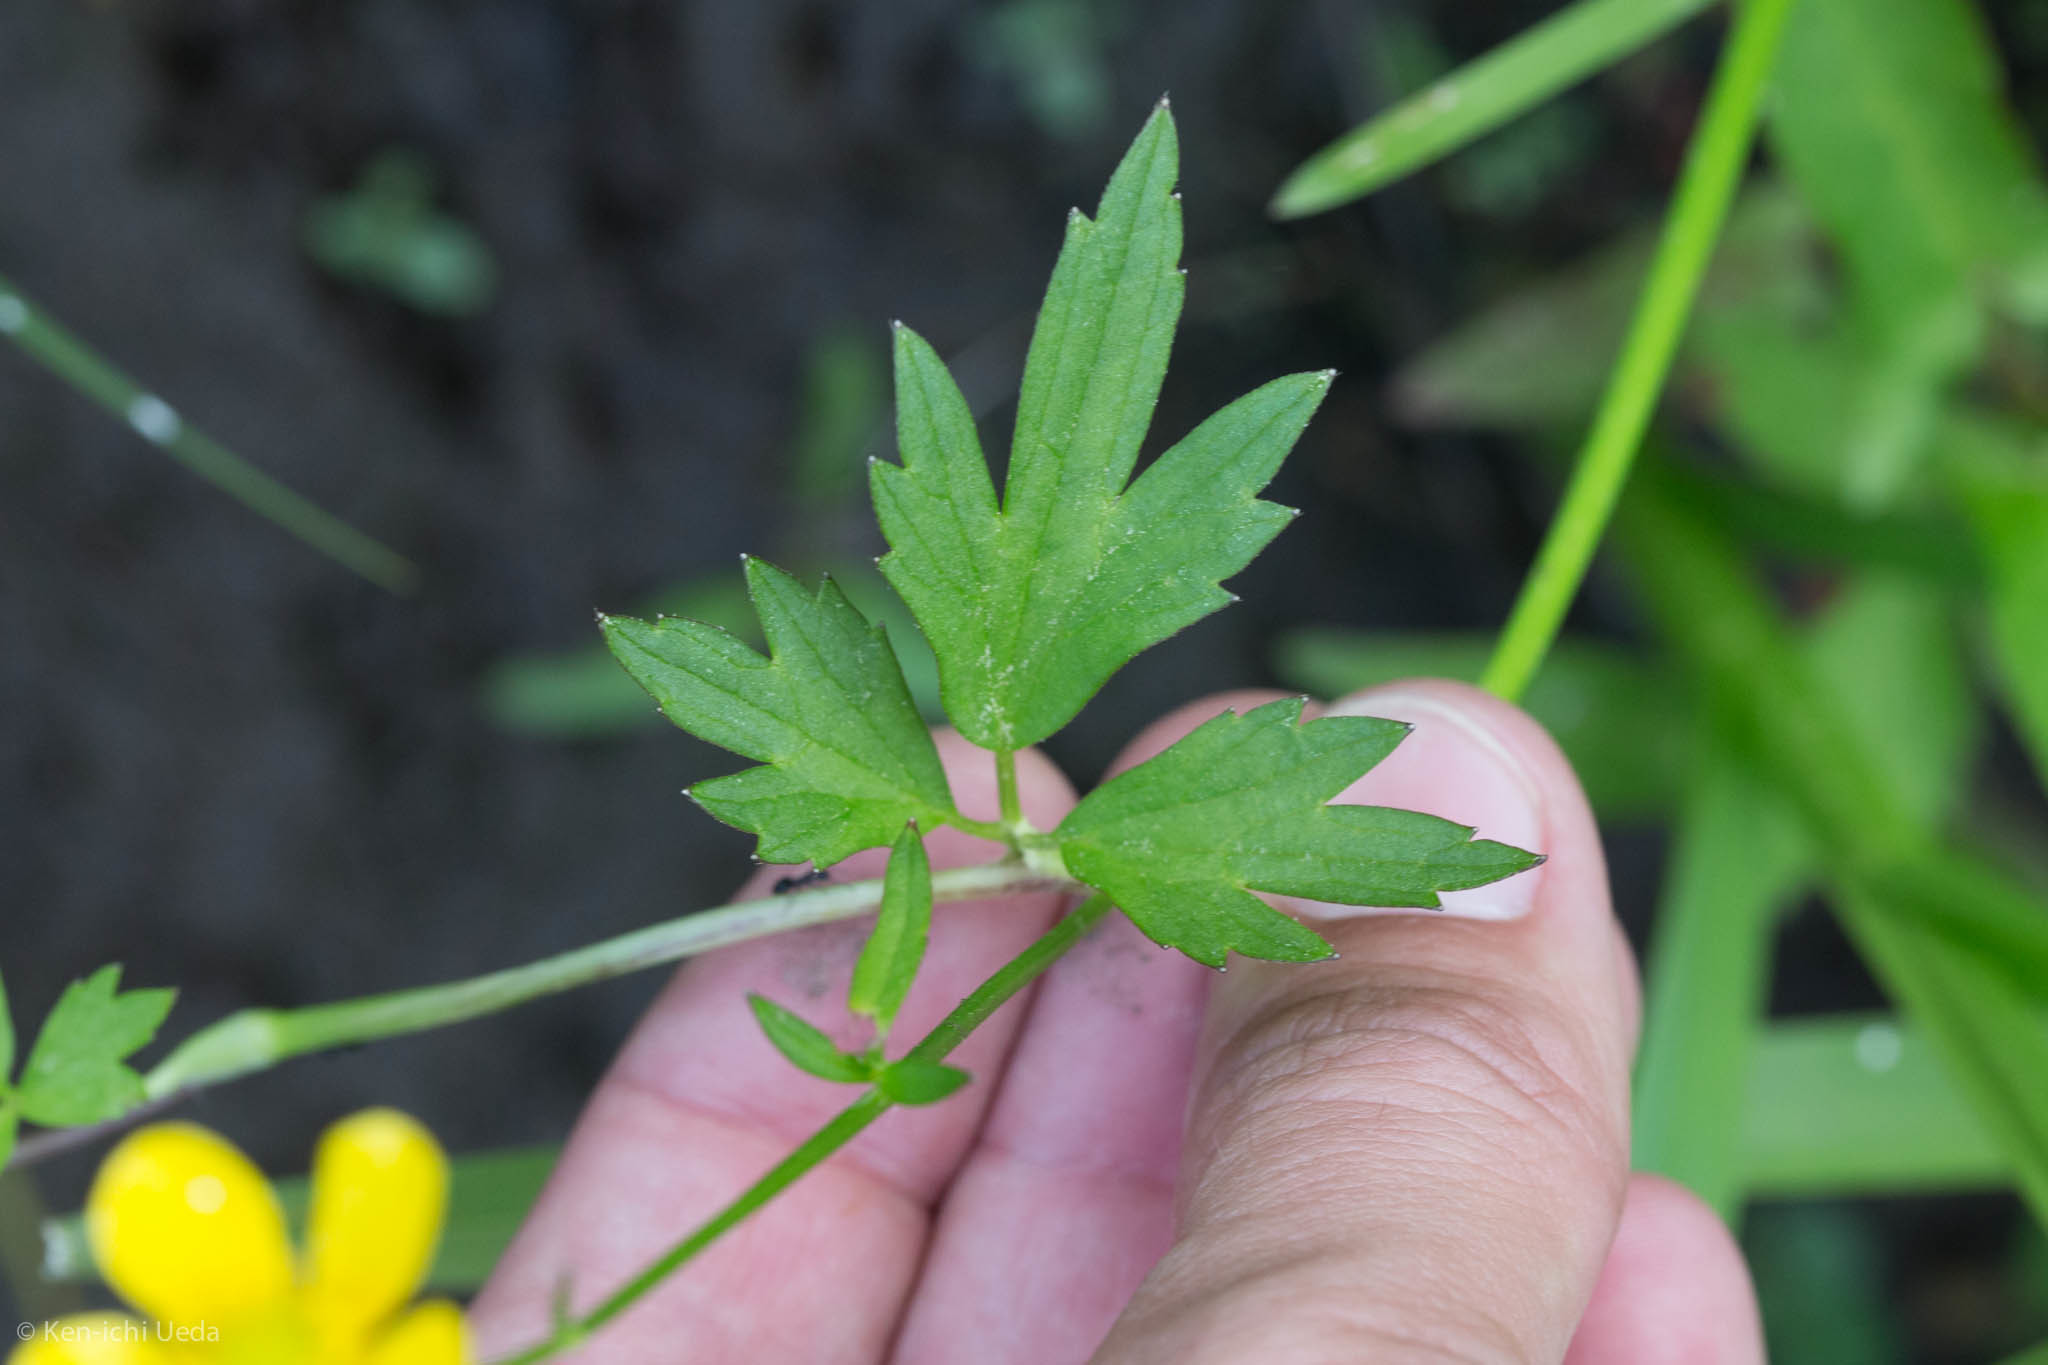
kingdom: Plantae
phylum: Tracheophyta
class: Magnoliopsida
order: Ranunculales
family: Ranunculaceae
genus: Ranunculus
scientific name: Ranunculus acris
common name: Meadow buttercup
